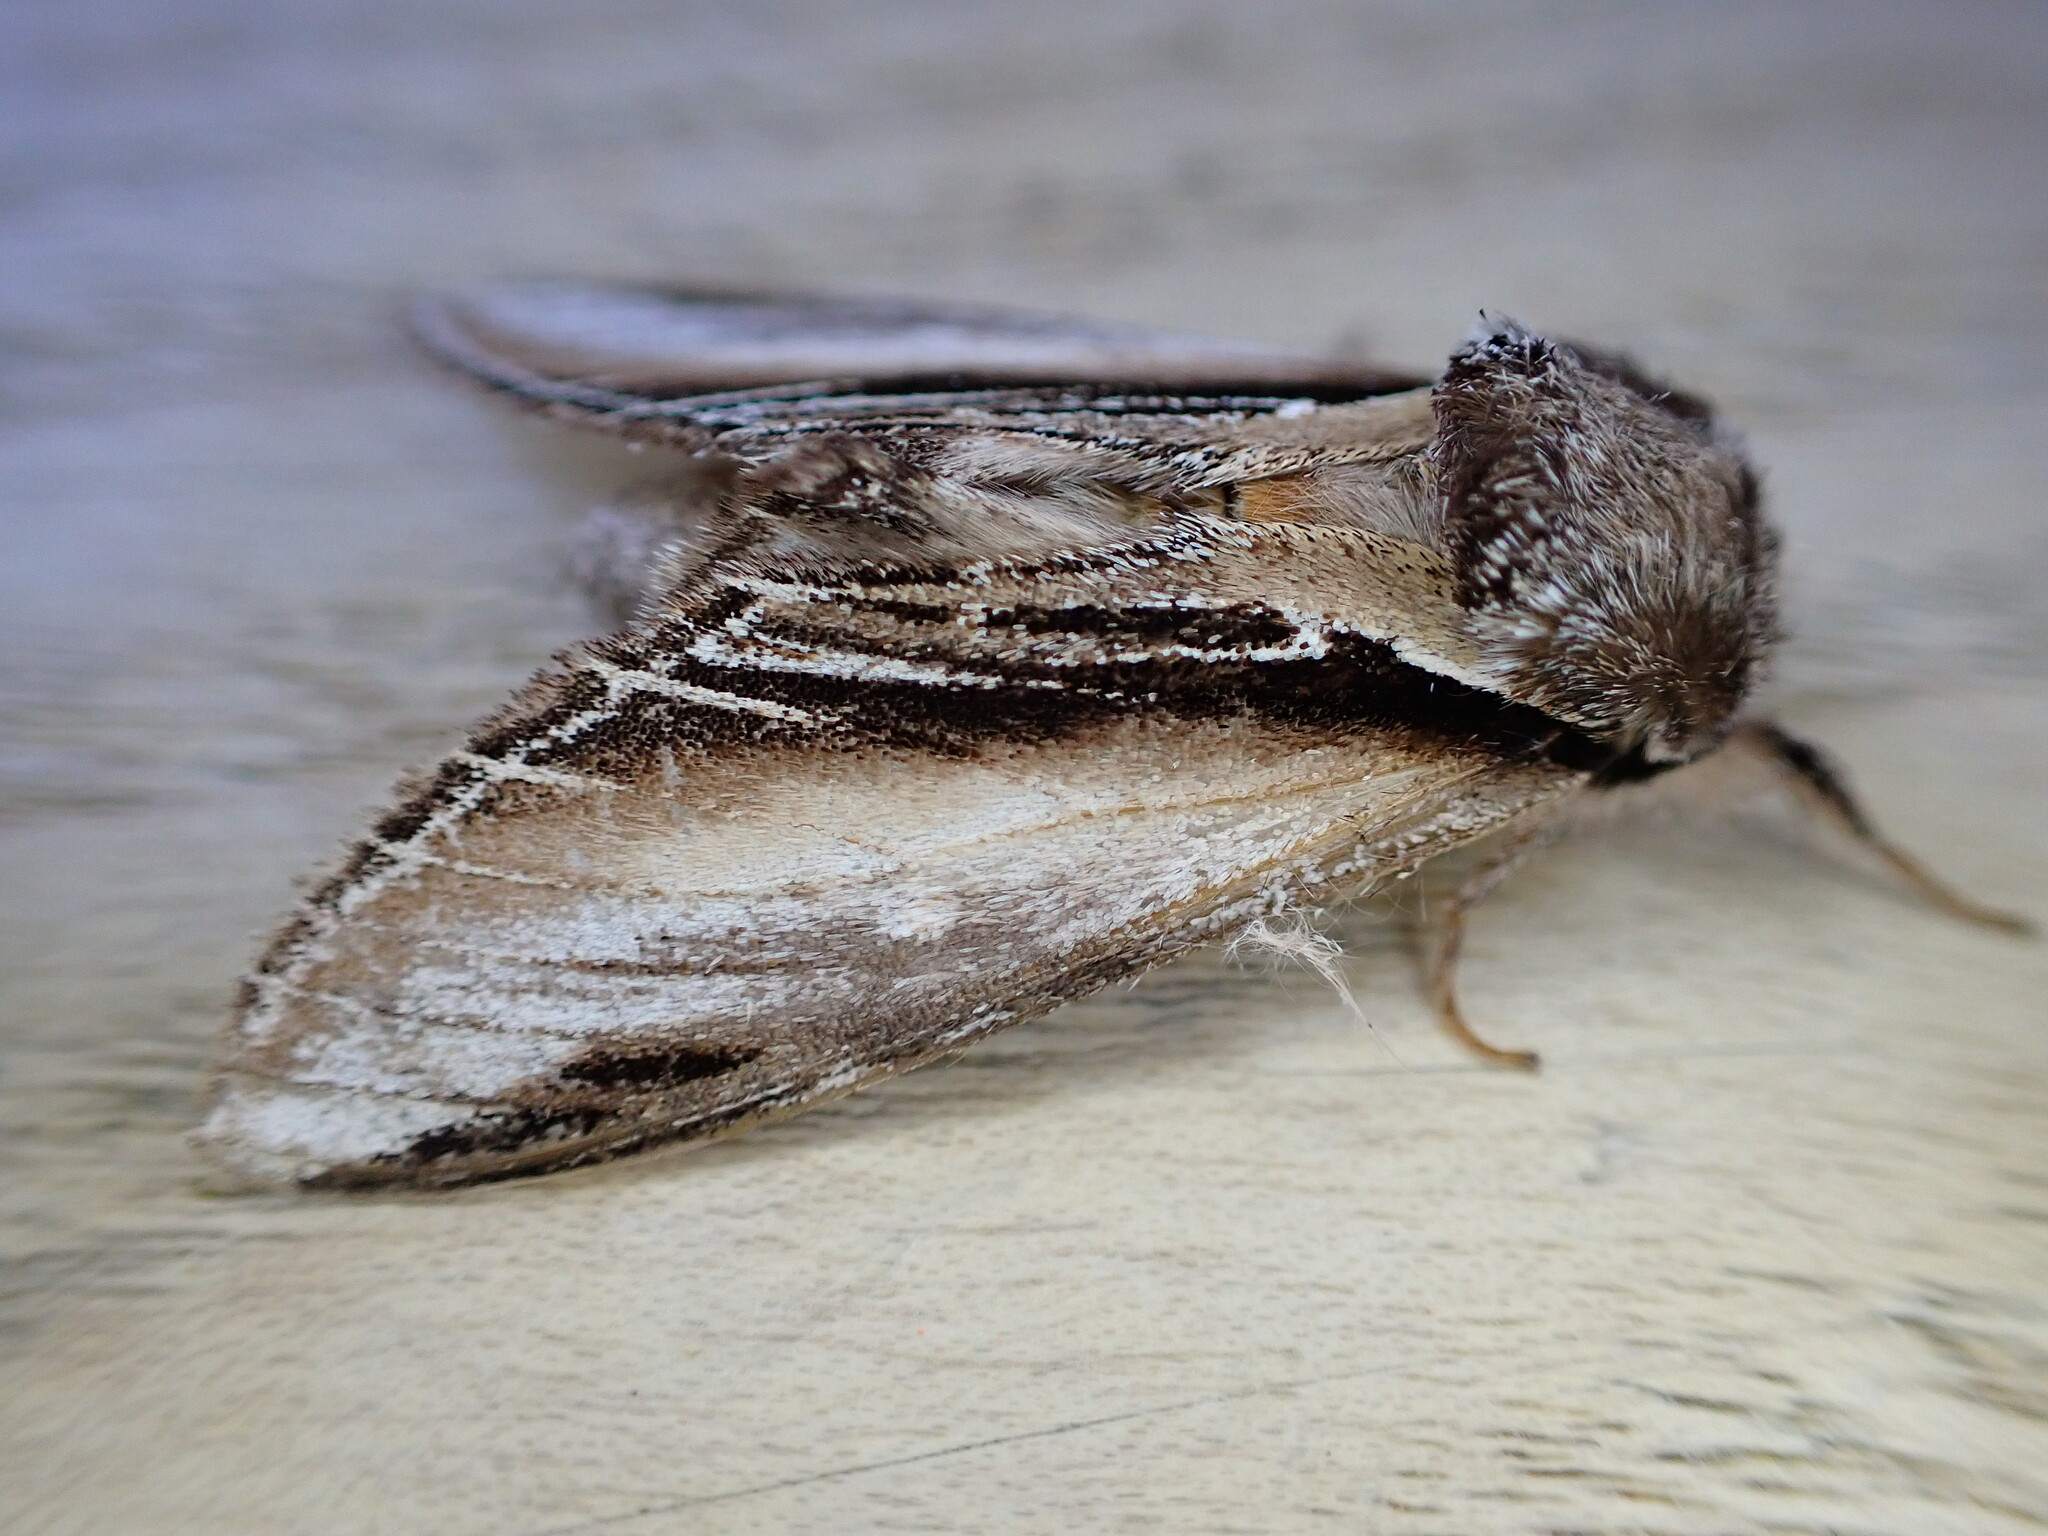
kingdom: Animalia
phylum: Arthropoda
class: Insecta
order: Lepidoptera
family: Notodontidae
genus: Pheosia
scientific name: Pheosia tremula
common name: Swallow prominent
